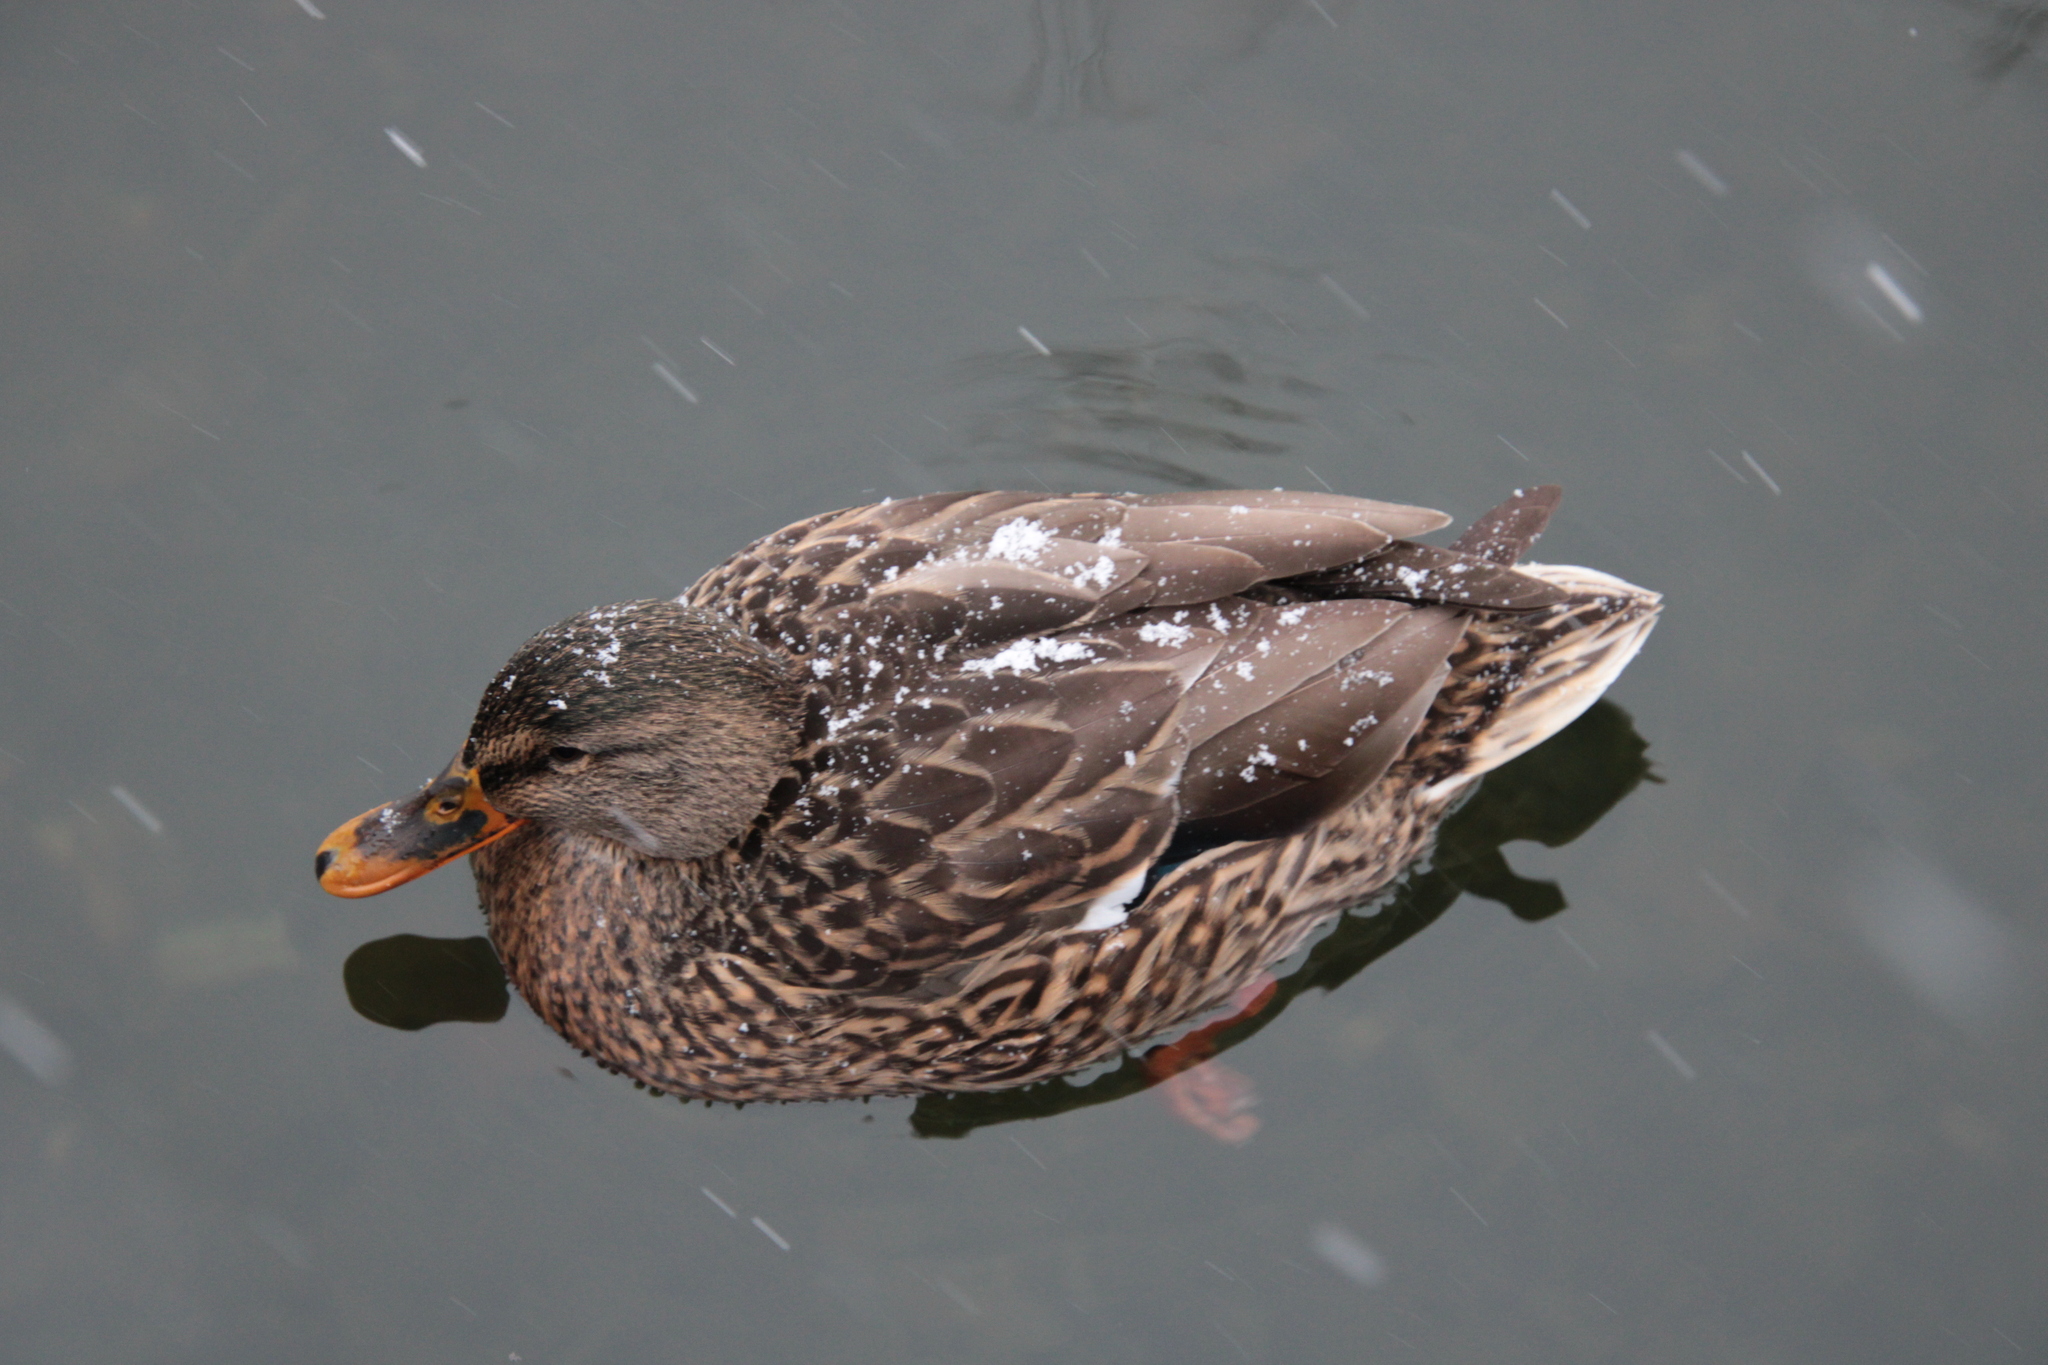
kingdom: Animalia
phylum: Chordata
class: Aves
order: Anseriformes
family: Anatidae
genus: Anas
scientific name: Anas platyrhynchos
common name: Mallard
